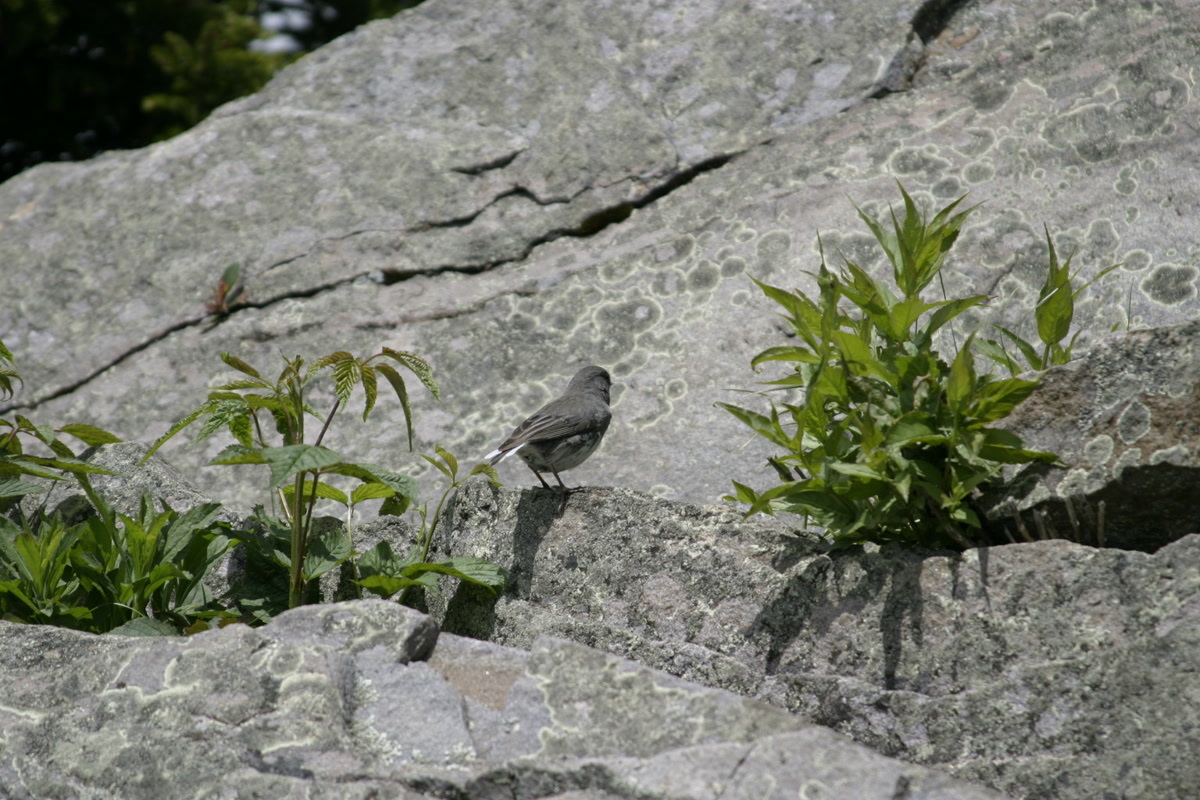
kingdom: Animalia
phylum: Chordata
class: Aves
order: Passeriformes
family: Passerellidae
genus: Junco
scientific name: Junco hyemalis
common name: Dark-eyed junco
